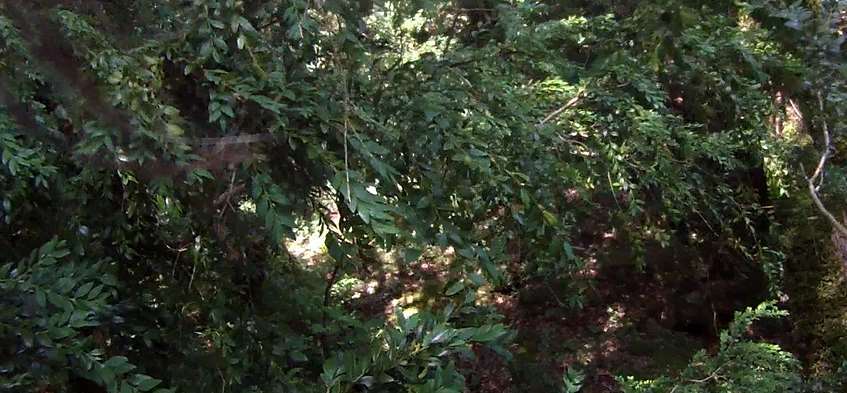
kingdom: Plantae
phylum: Tracheophyta
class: Magnoliopsida
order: Buxales
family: Buxaceae
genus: Buxus
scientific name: Buxus sempervirens
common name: Box
